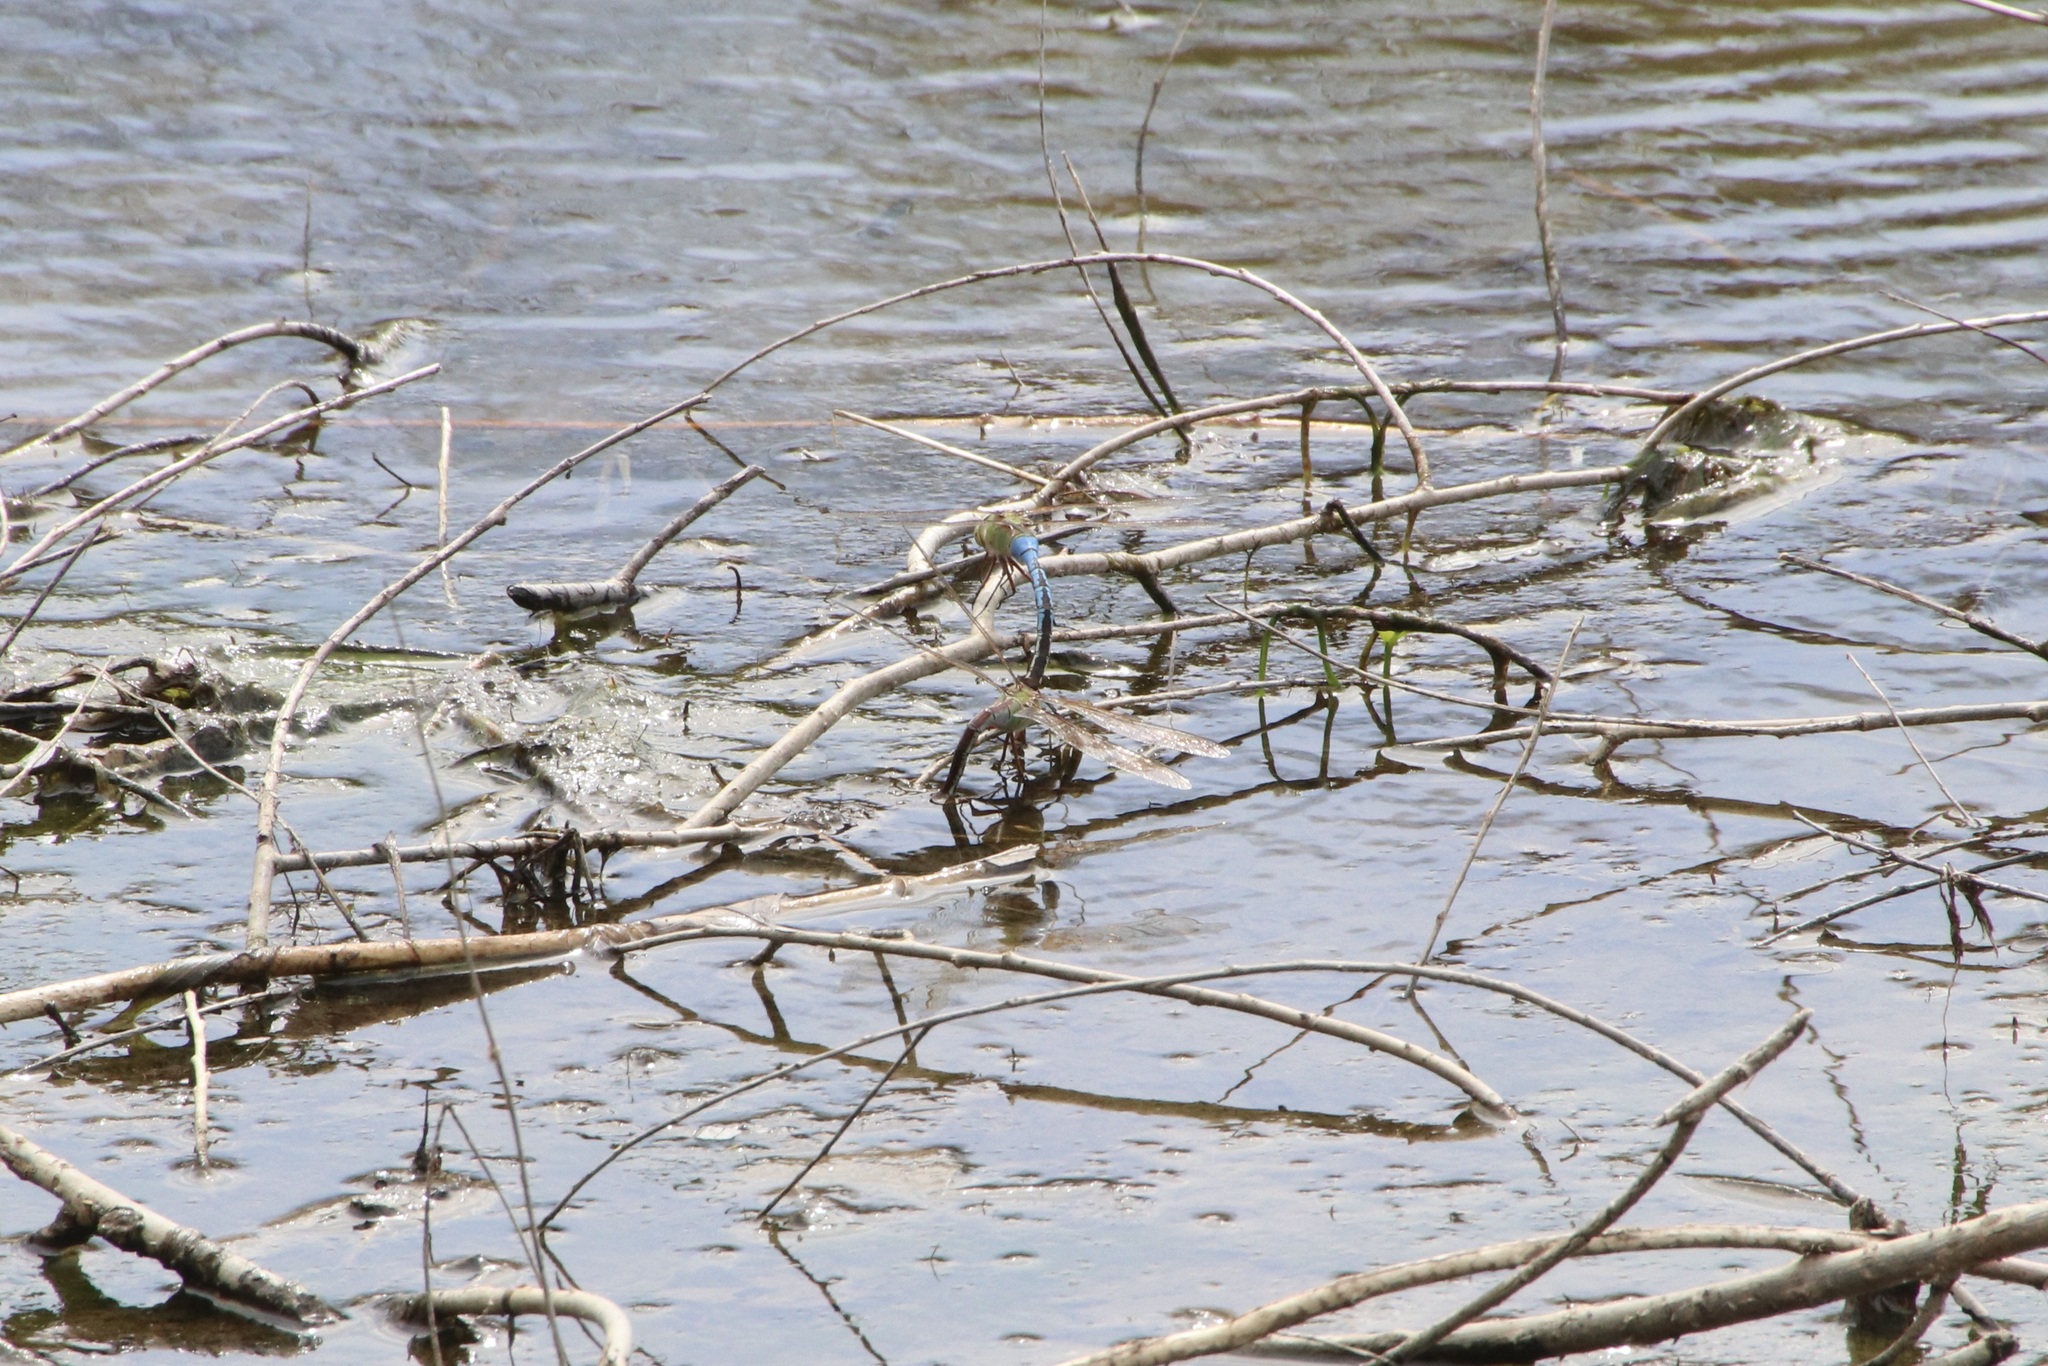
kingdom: Animalia
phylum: Arthropoda
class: Insecta
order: Odonata
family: Aeshnidae
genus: Anax
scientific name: Anax junius
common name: Common green darner
